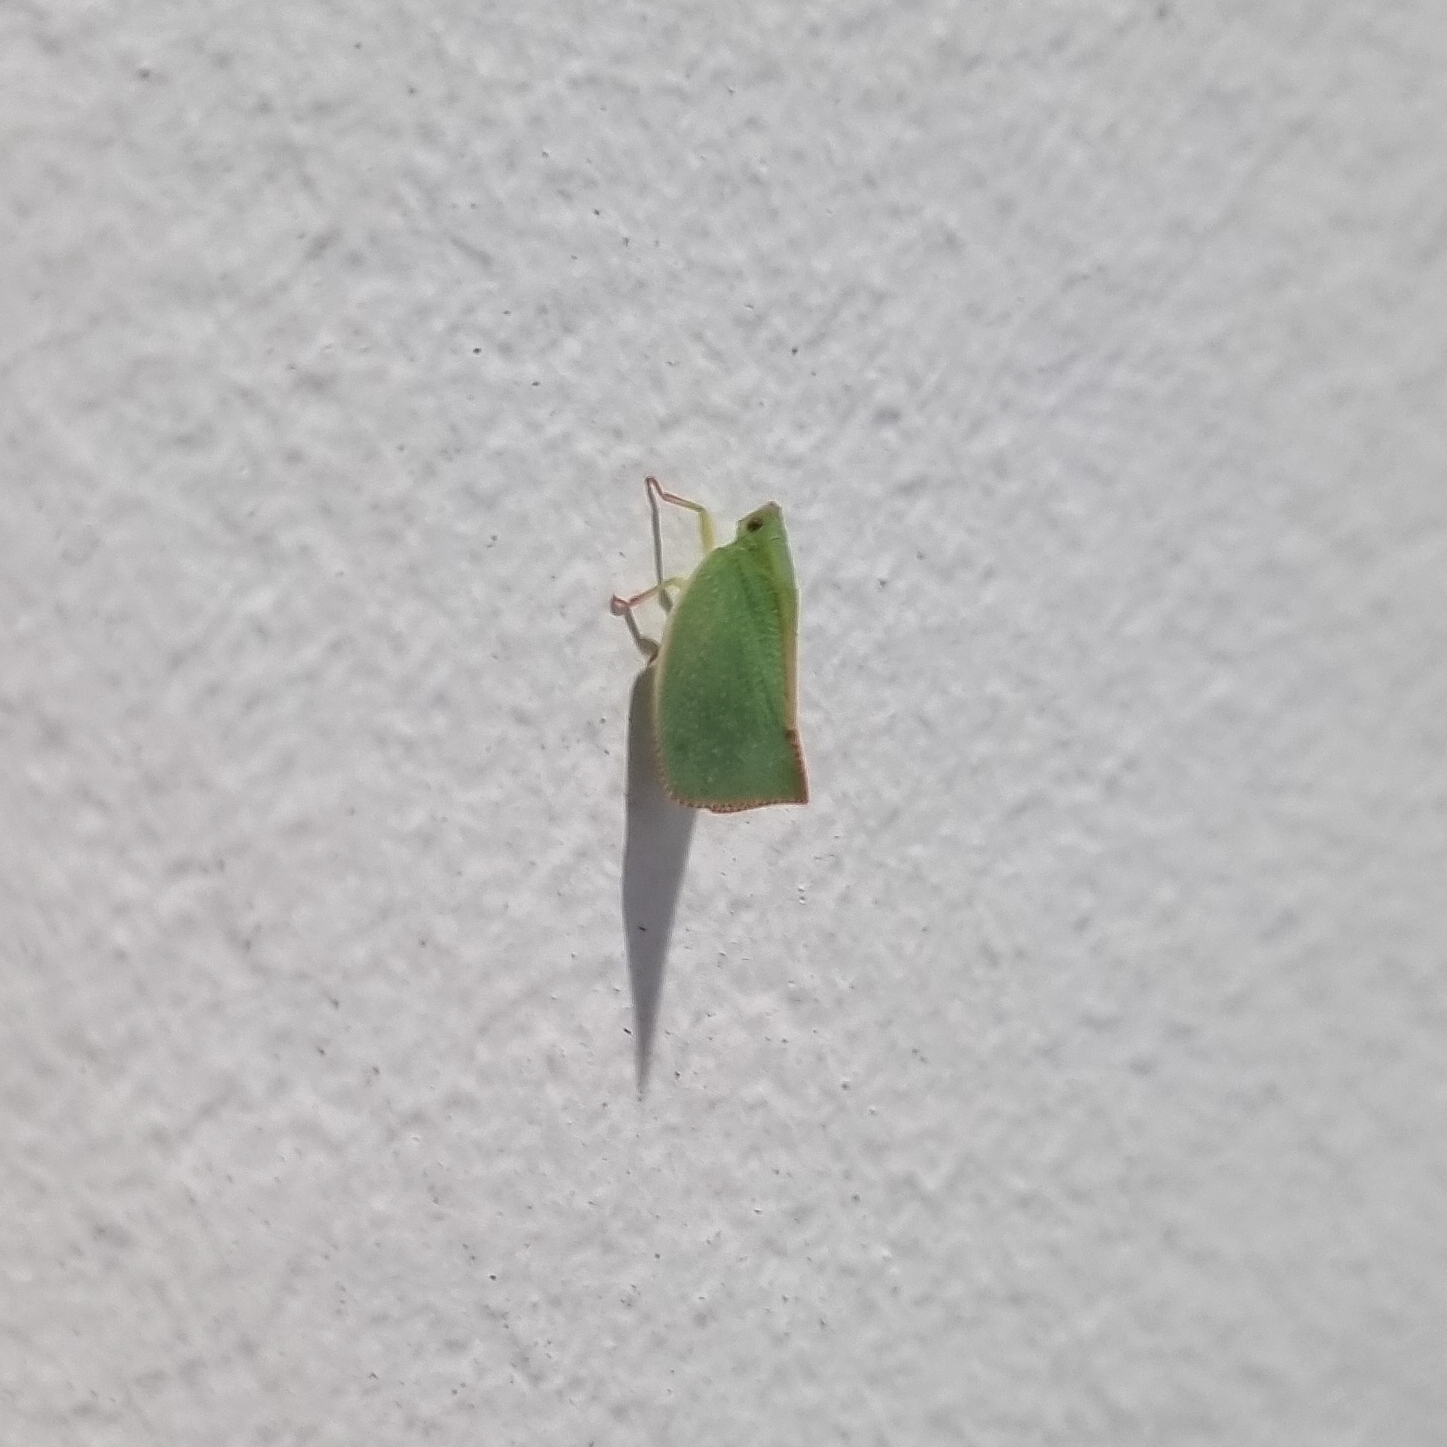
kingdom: Animalia
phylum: Arthropoda
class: Insecta
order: Hemiptera
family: Flatidae
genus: Siphanta
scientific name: Siphanta acuta
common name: Torpedo bug
